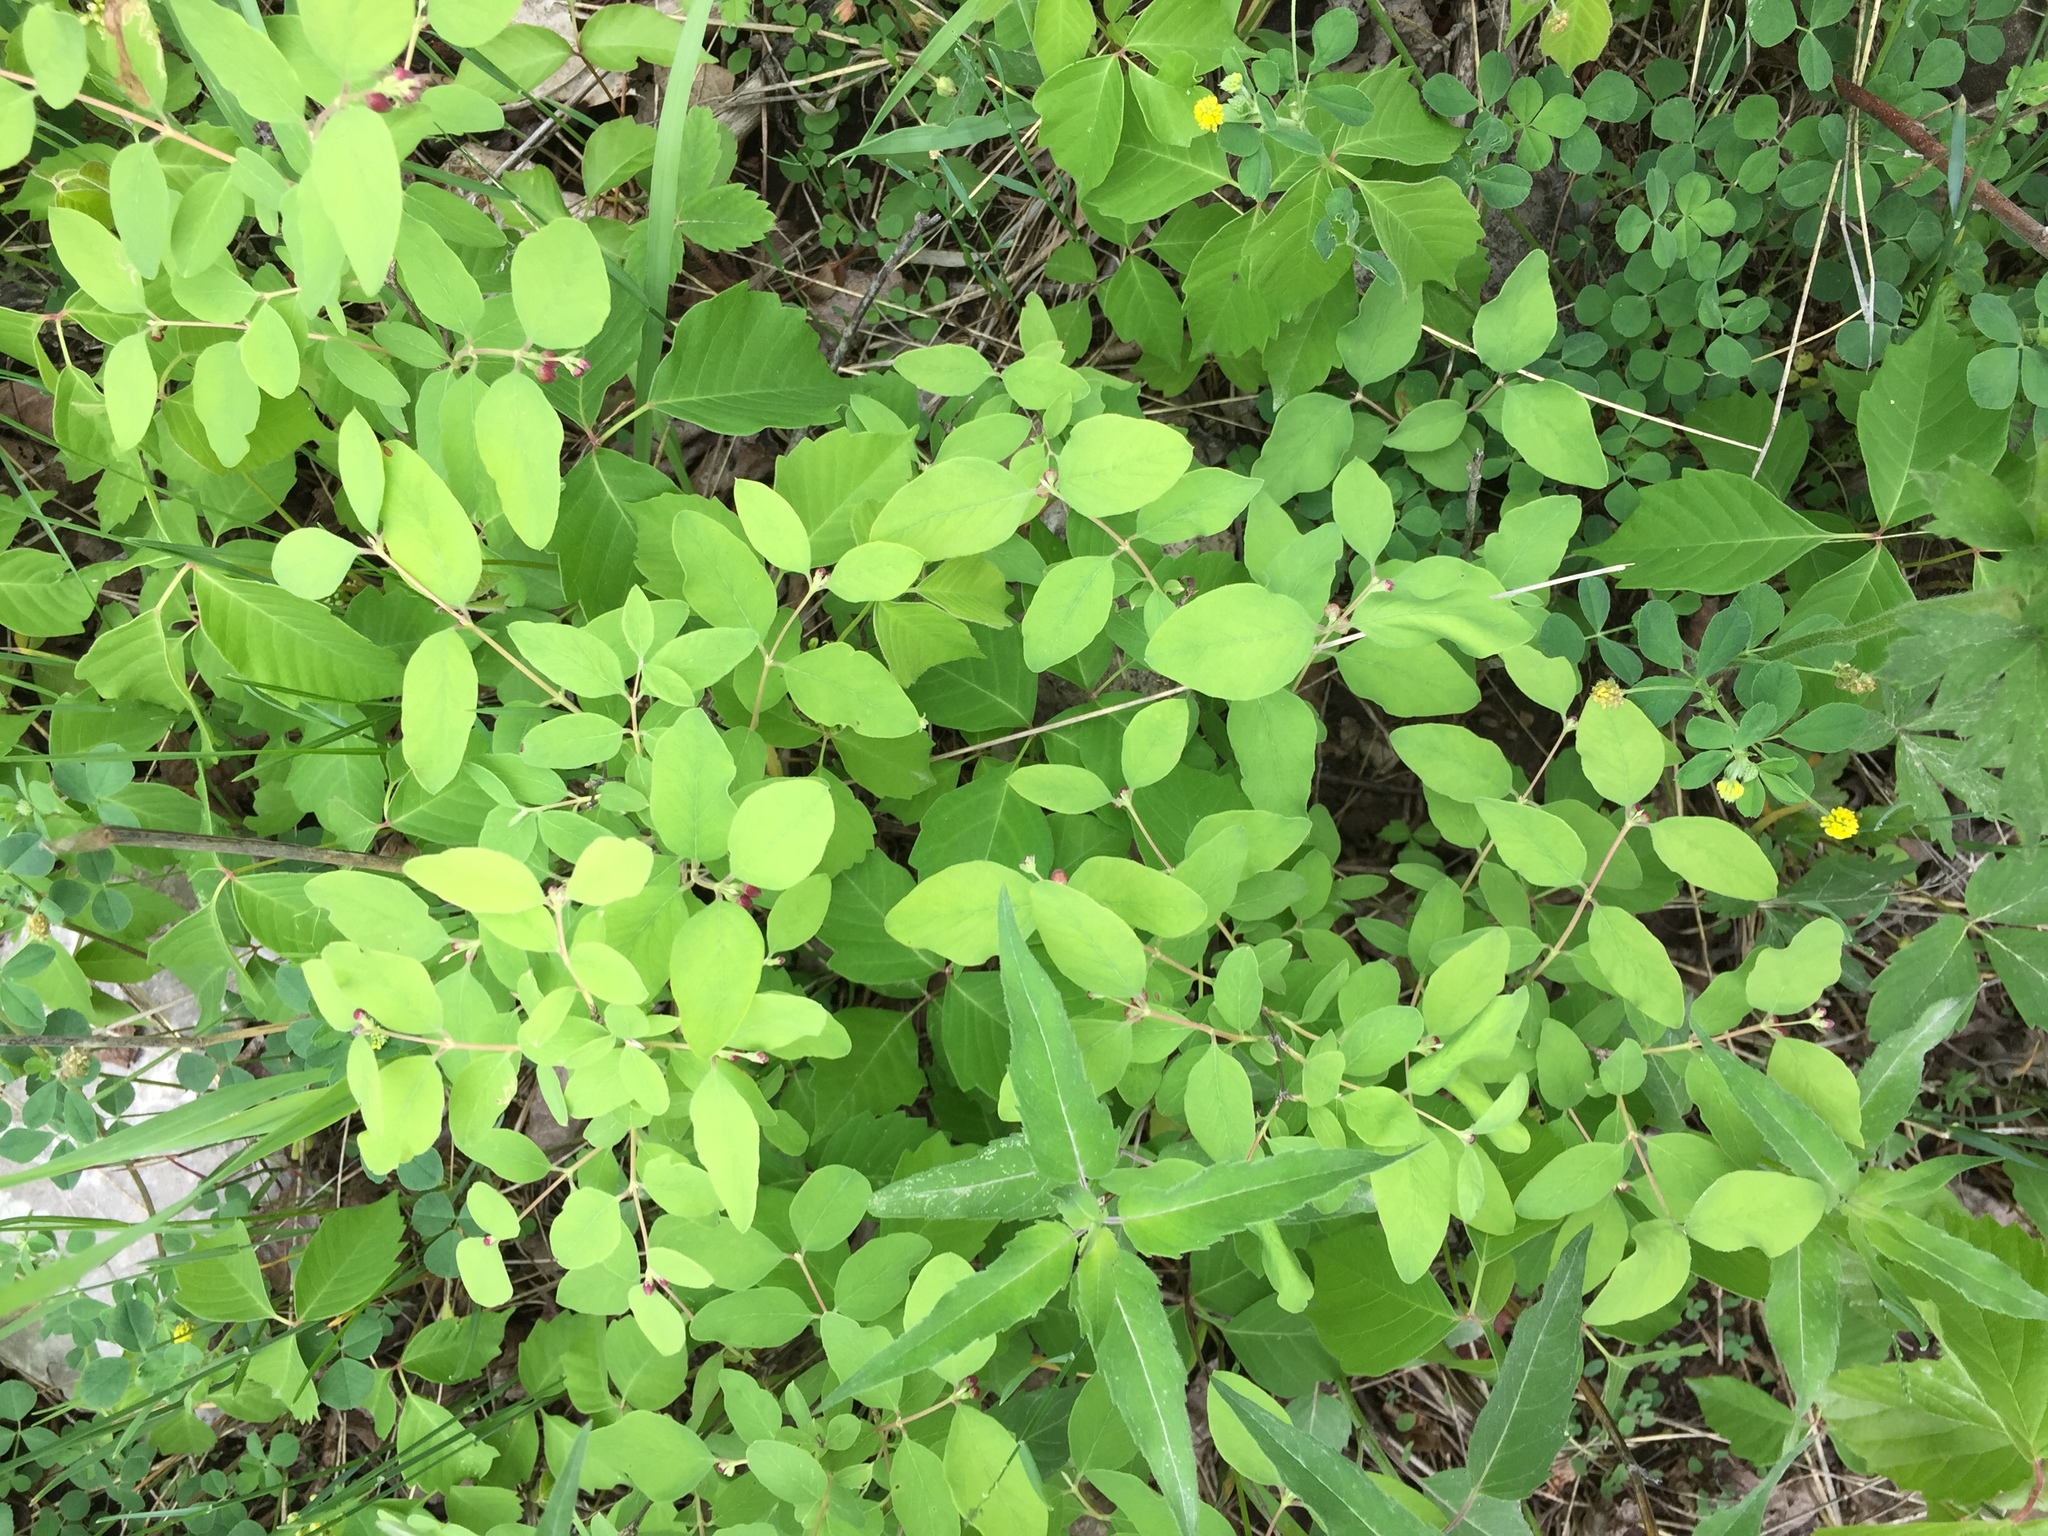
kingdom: Plantae
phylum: Tracheophyta
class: Magnoliopsida
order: Dipsacales
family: Caprifoliaceae
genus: Symphoricarpos
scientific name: Symphoricarpos albus
